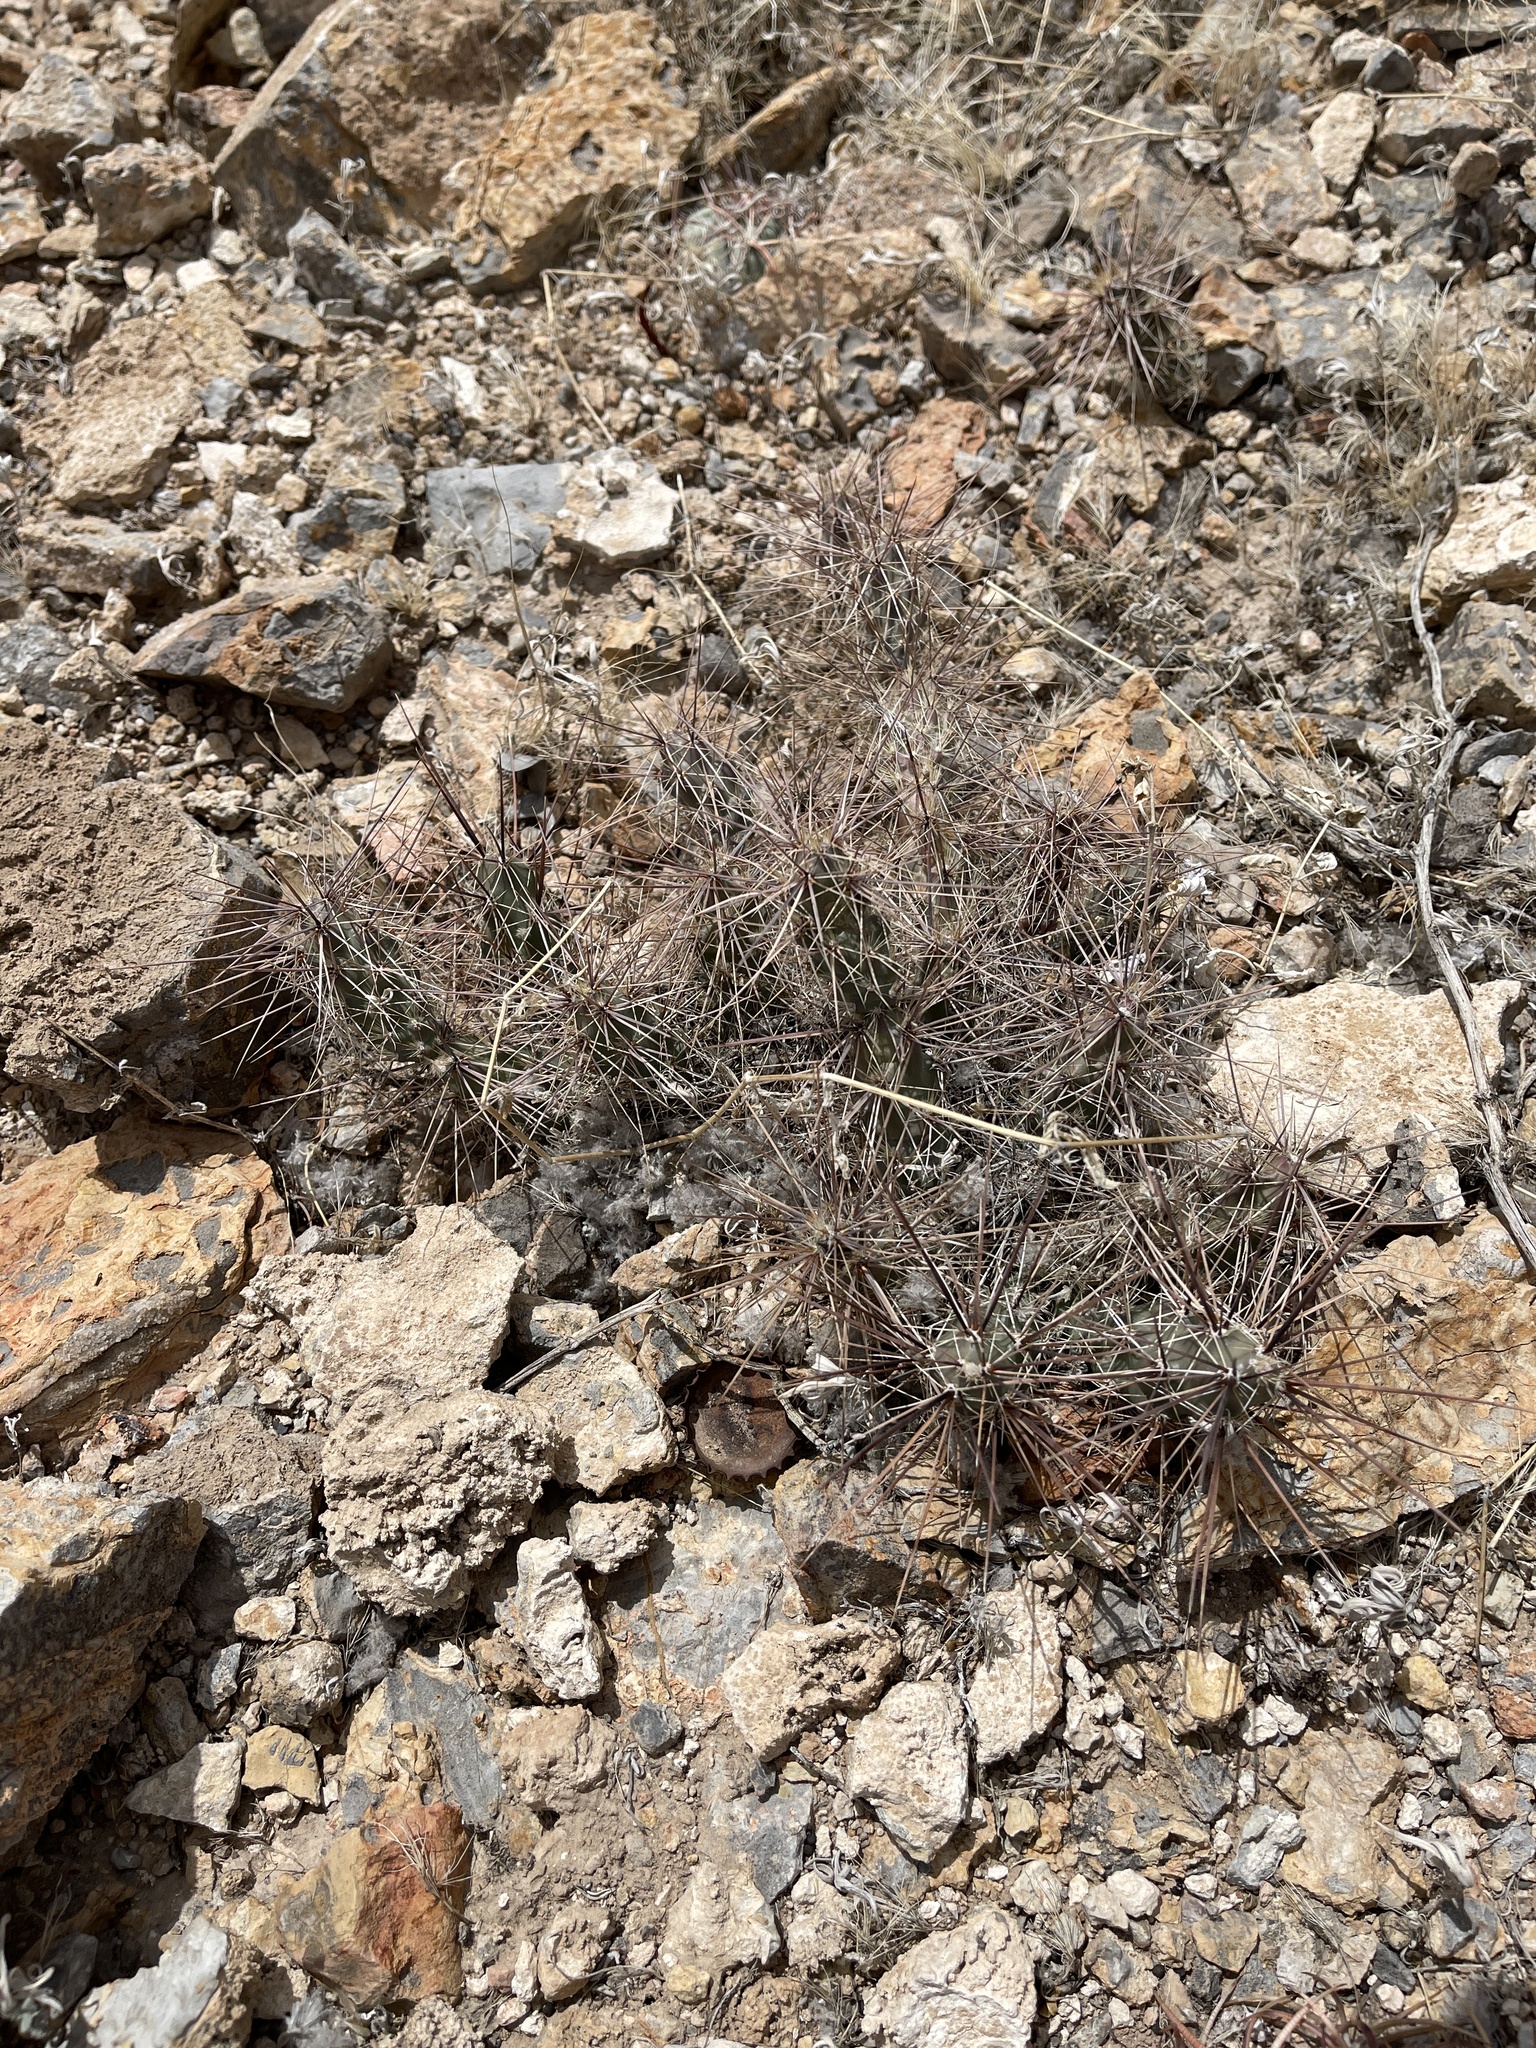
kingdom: Plantae
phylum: Tracheophyta
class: Magnoliopsida
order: Caryophyllales
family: Cactaceae
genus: Grusonia
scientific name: Grusonia grahamii
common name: Graham's club cactus
